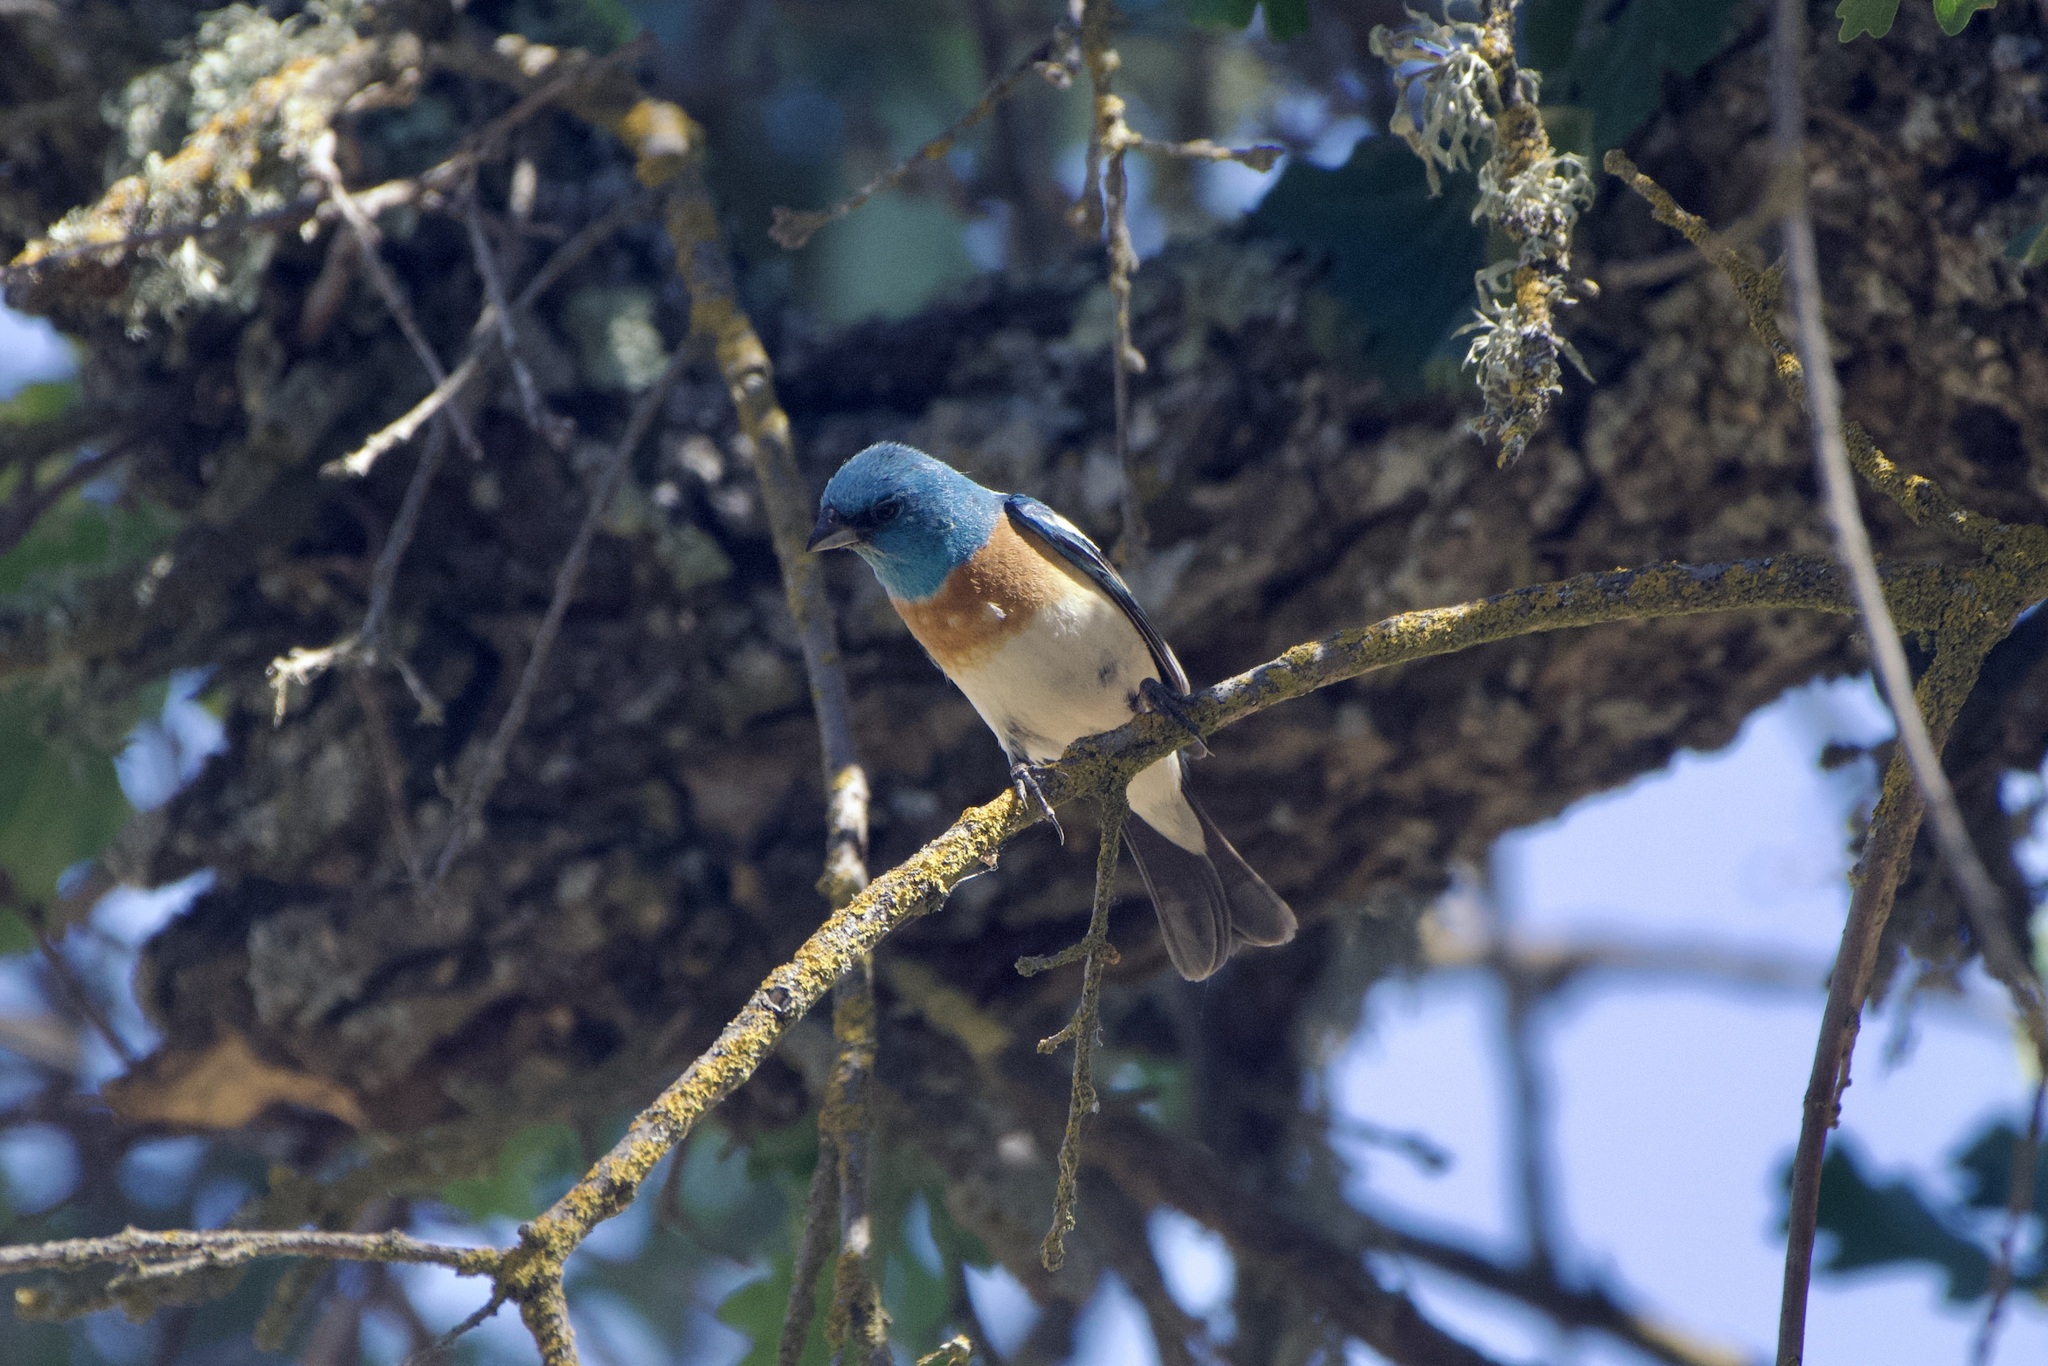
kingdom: Animalia
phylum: Chordata
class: Aves
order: Passeriformes
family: Cardinalidae
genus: Passerina
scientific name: Passerina amoena
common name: Lazuli bunting
